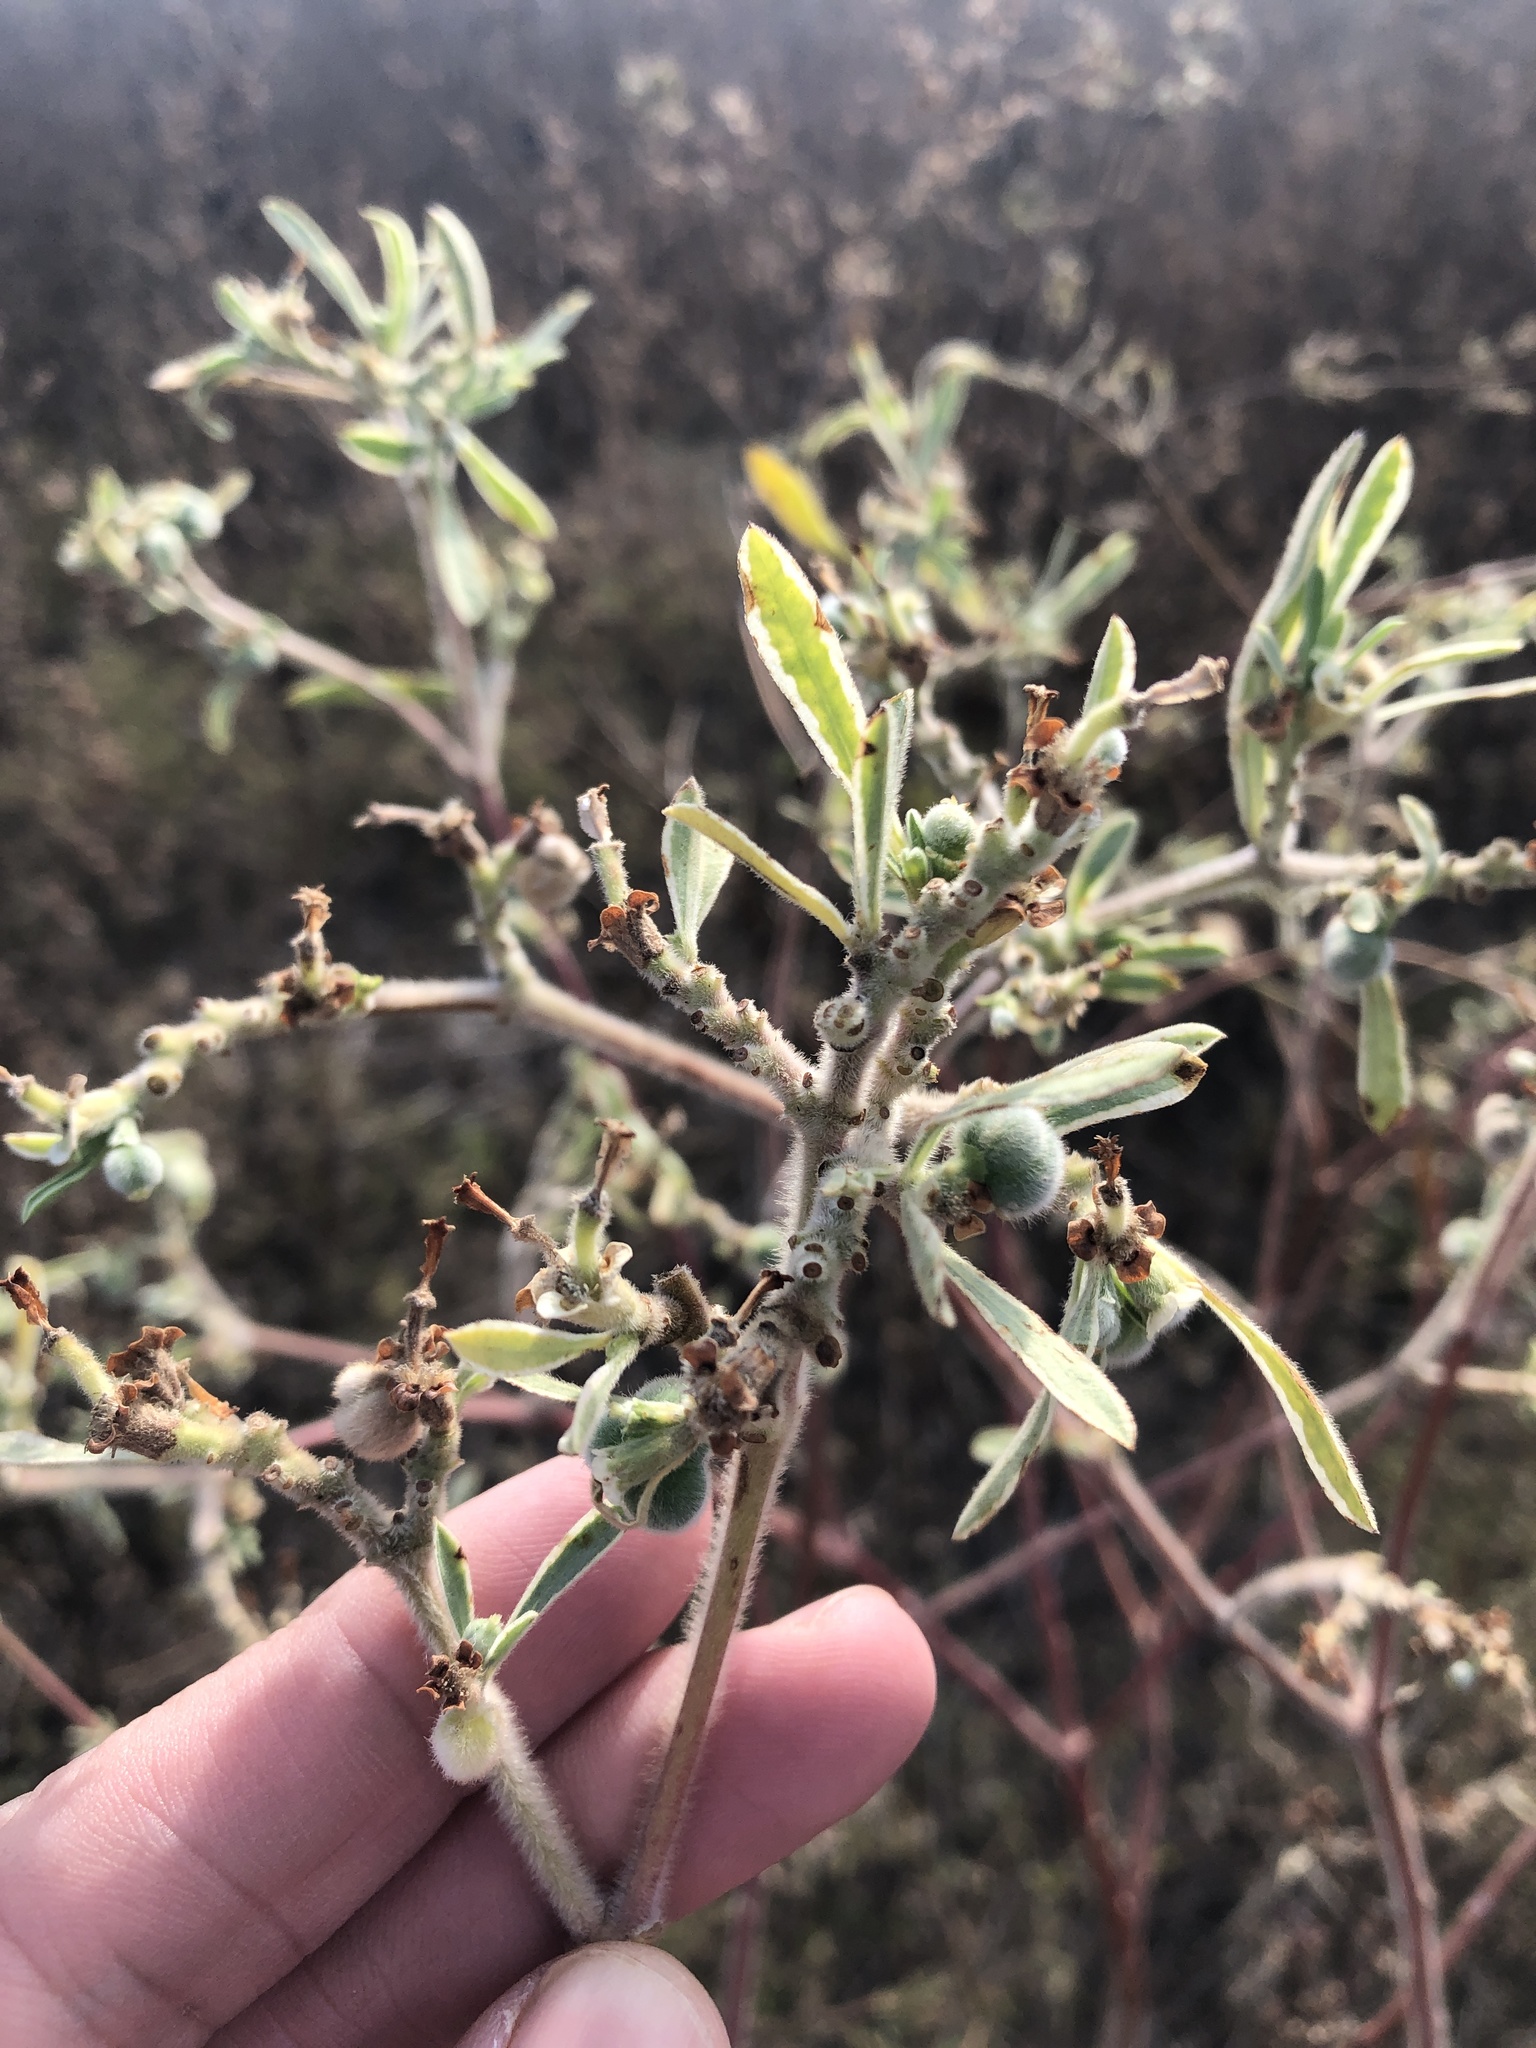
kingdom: Plantae
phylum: Tracheophyta
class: Magnoliopsida
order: Malpighiales
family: Euphorbiaceae
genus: Euphorbia
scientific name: Euphorbia bicolor
